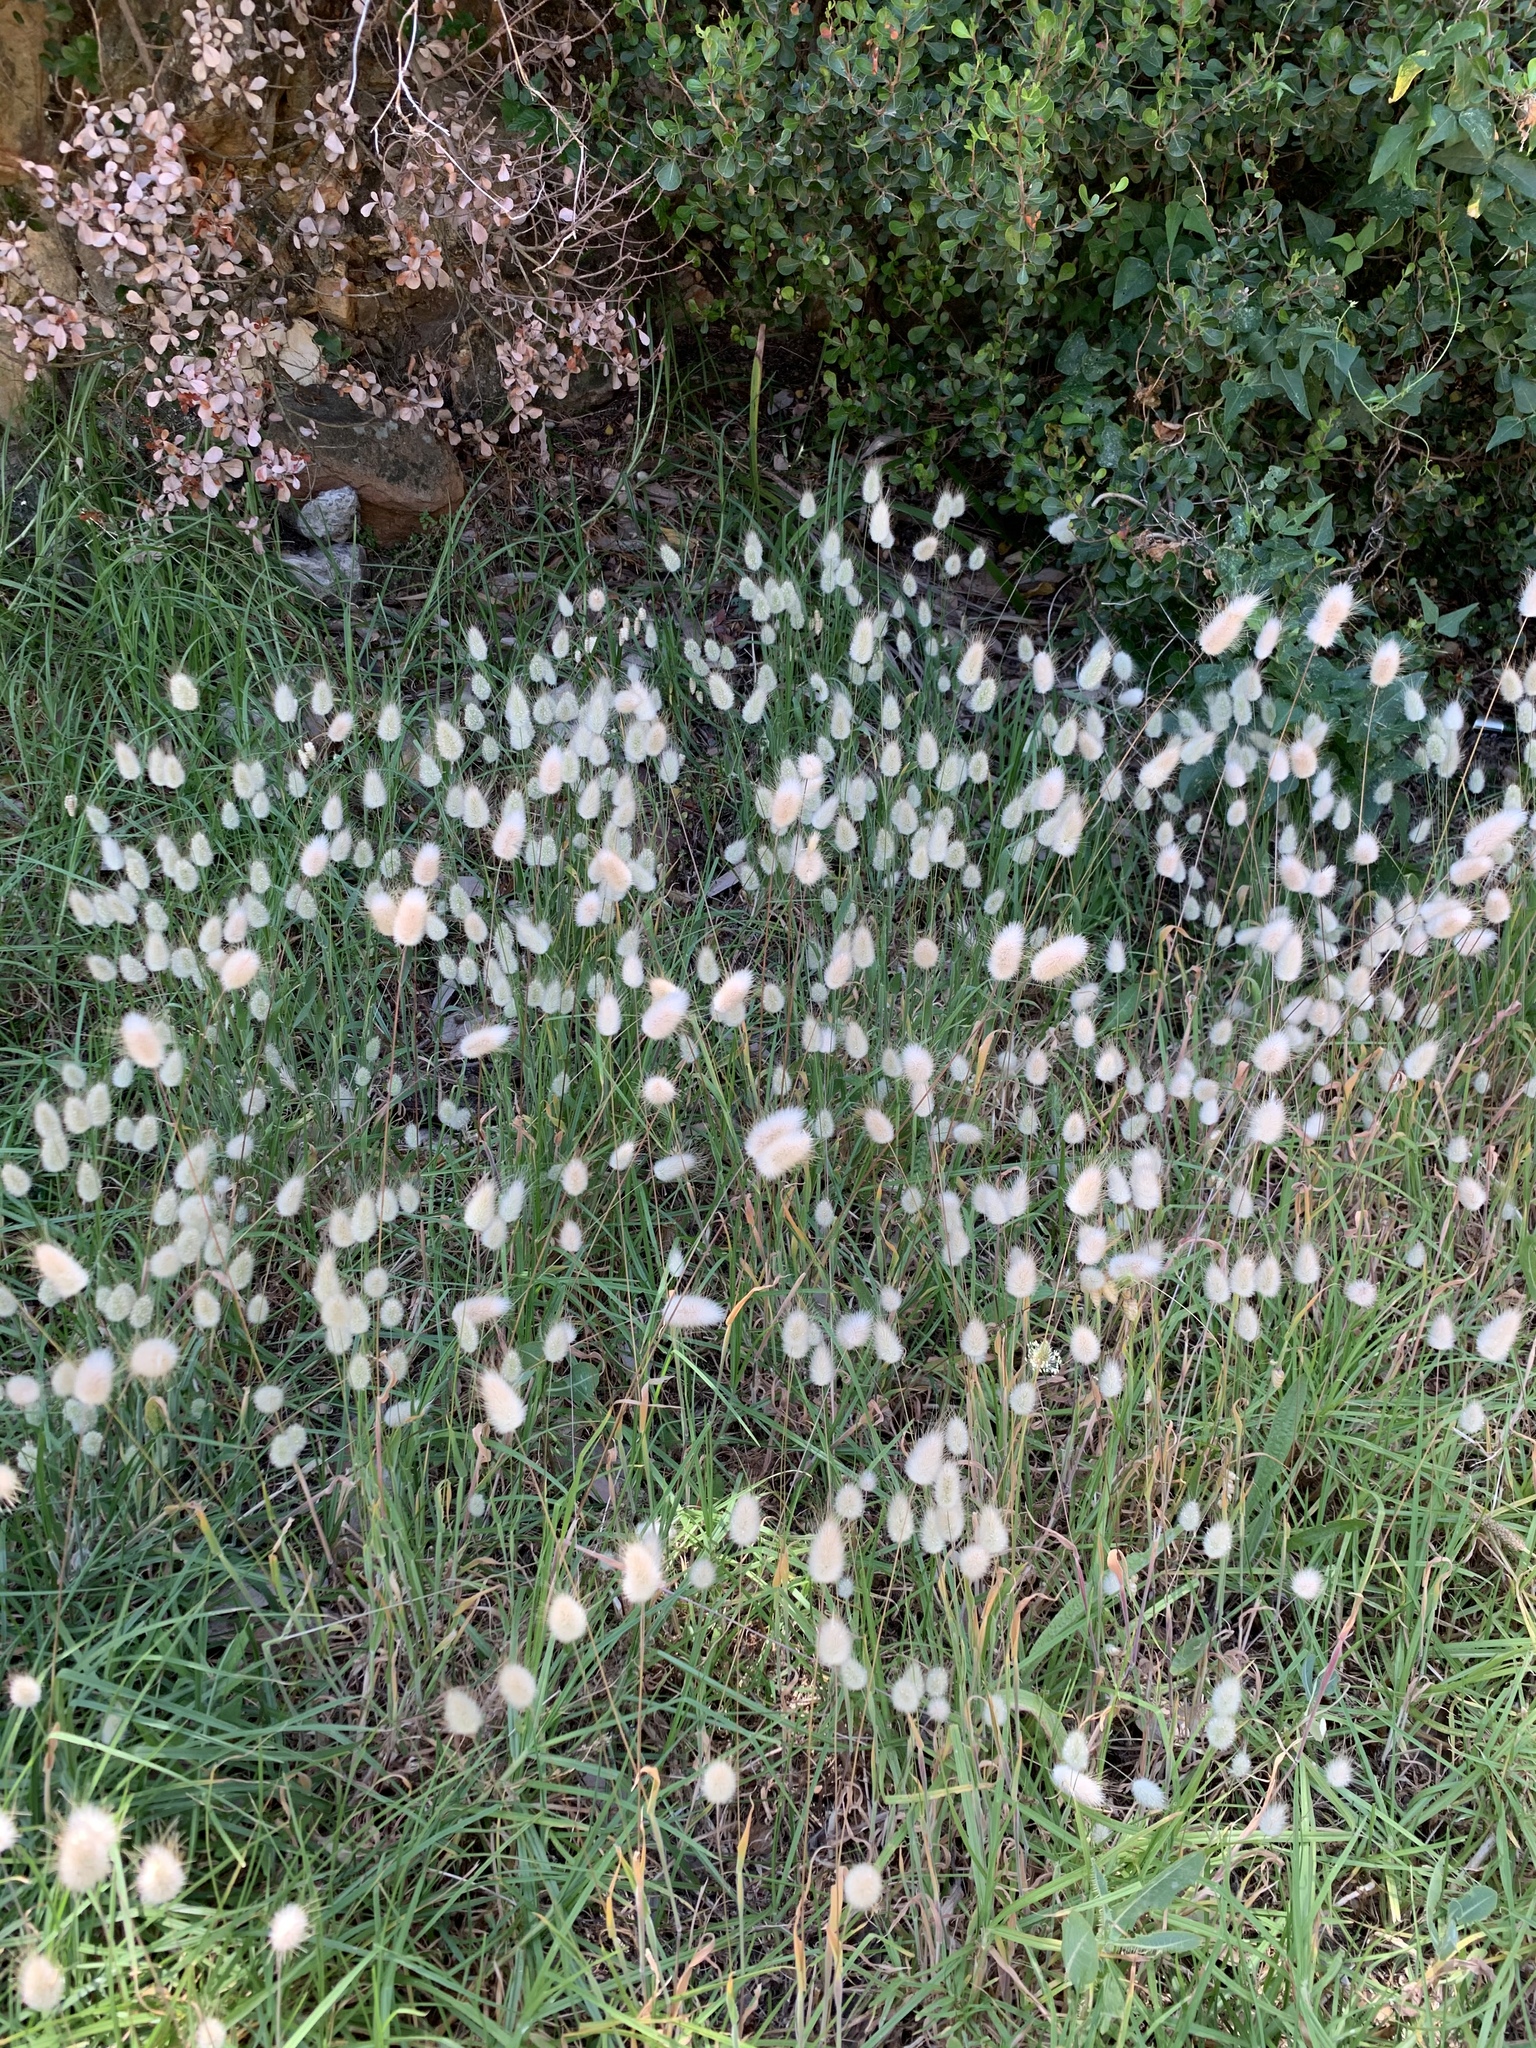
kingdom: Plantae
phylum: Tracheophyta
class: Liliopsida
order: Poales
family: Poaceae
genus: Lagurus
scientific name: Lagurus ovatus
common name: Hare's-tail
